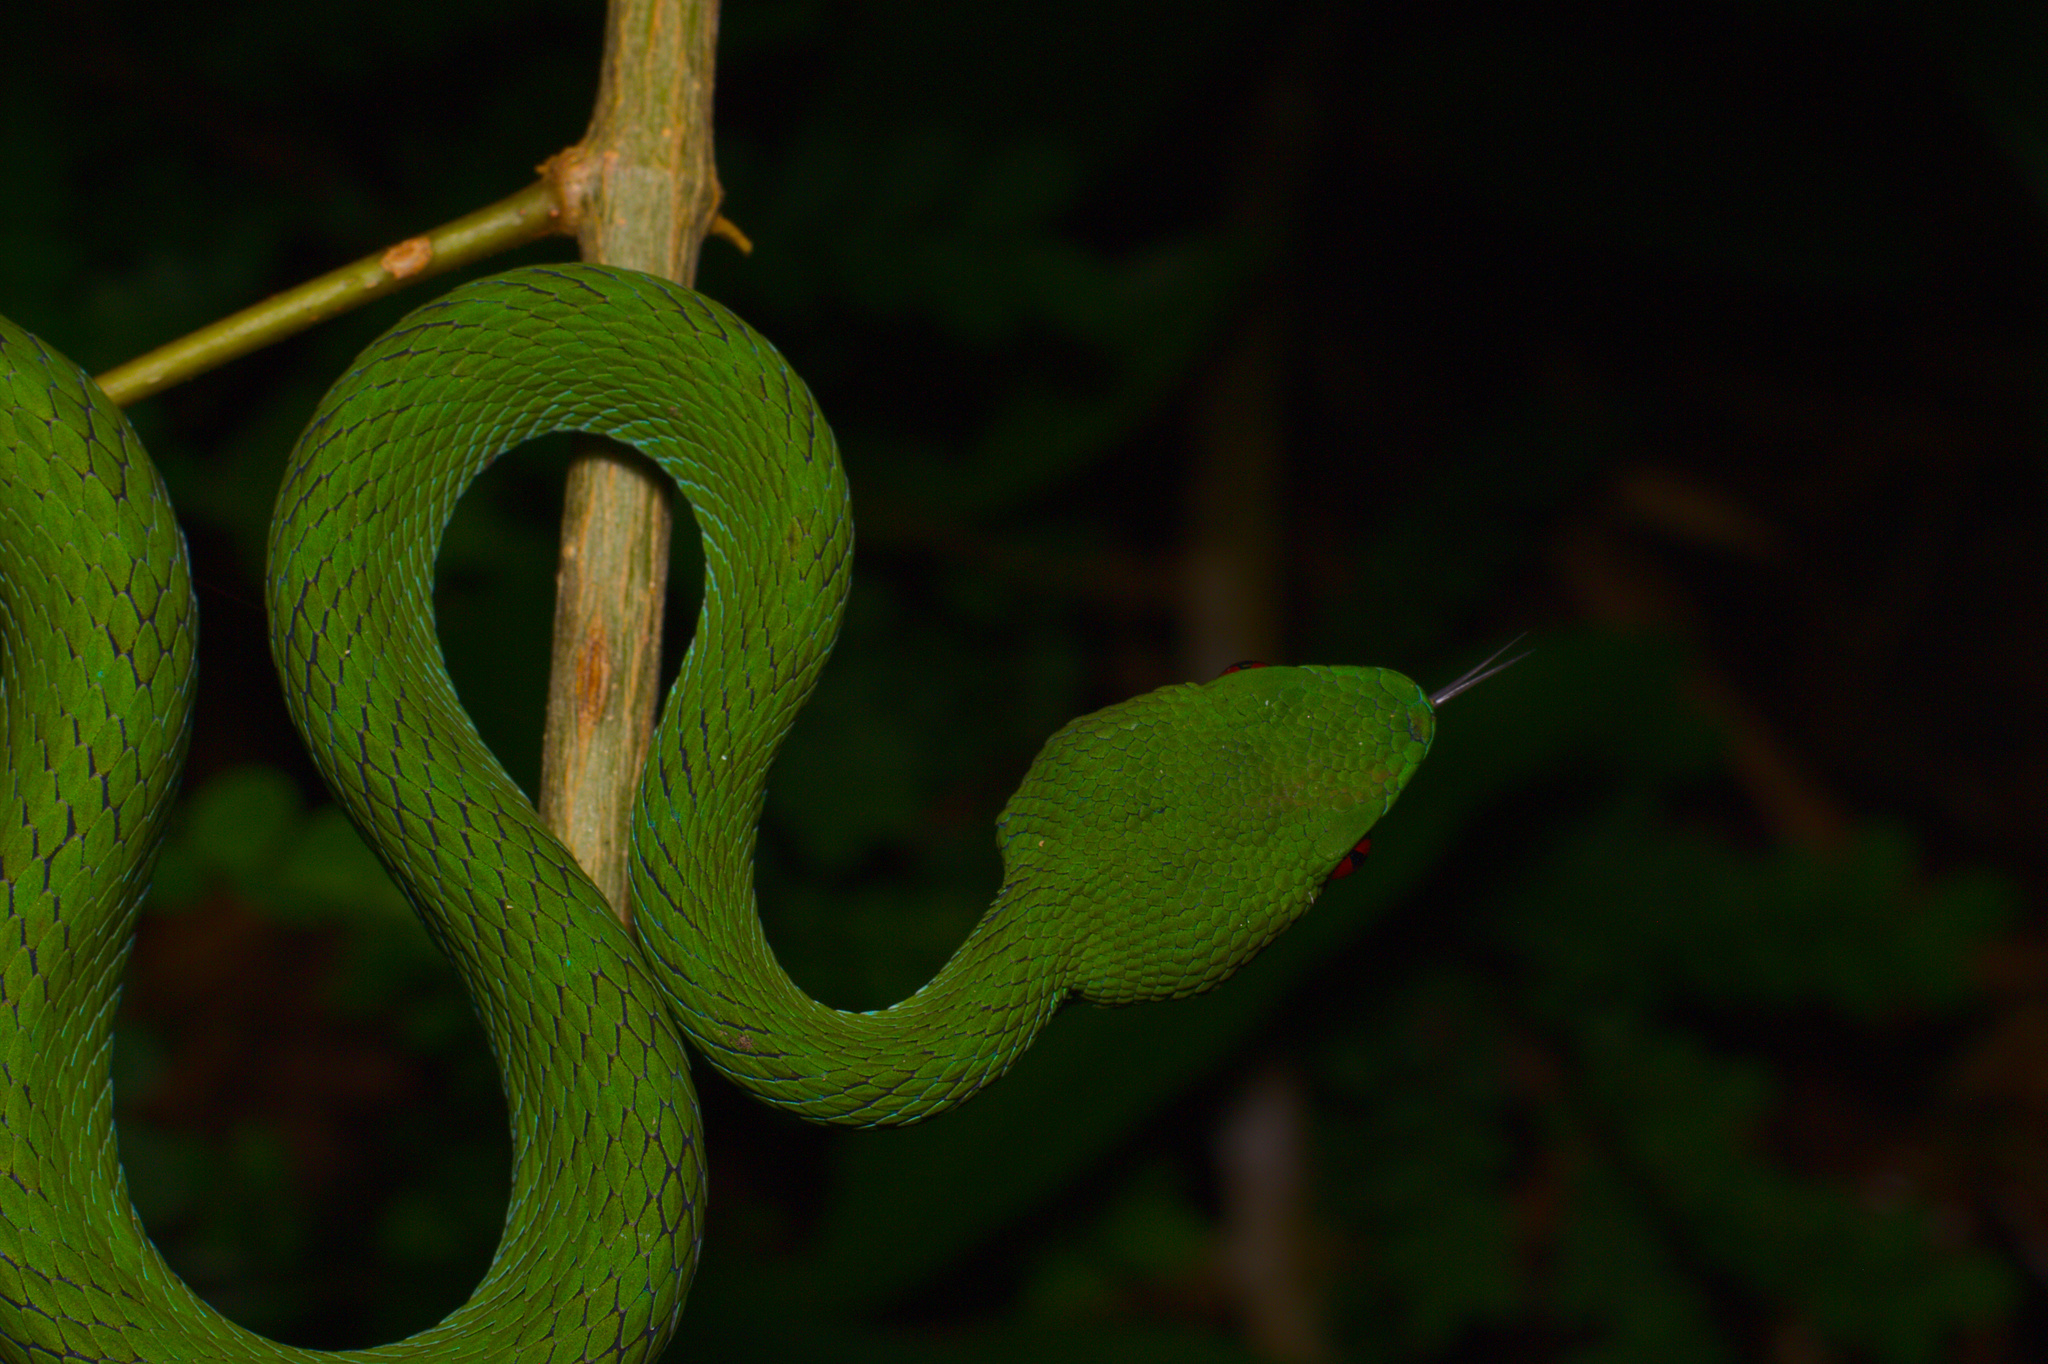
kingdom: Animalia
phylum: Chordata
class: Squamata
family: Viperidae
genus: Craspedocephalus
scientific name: Craspedocephalus rubeus
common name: Ruby-eyed green pitviper
